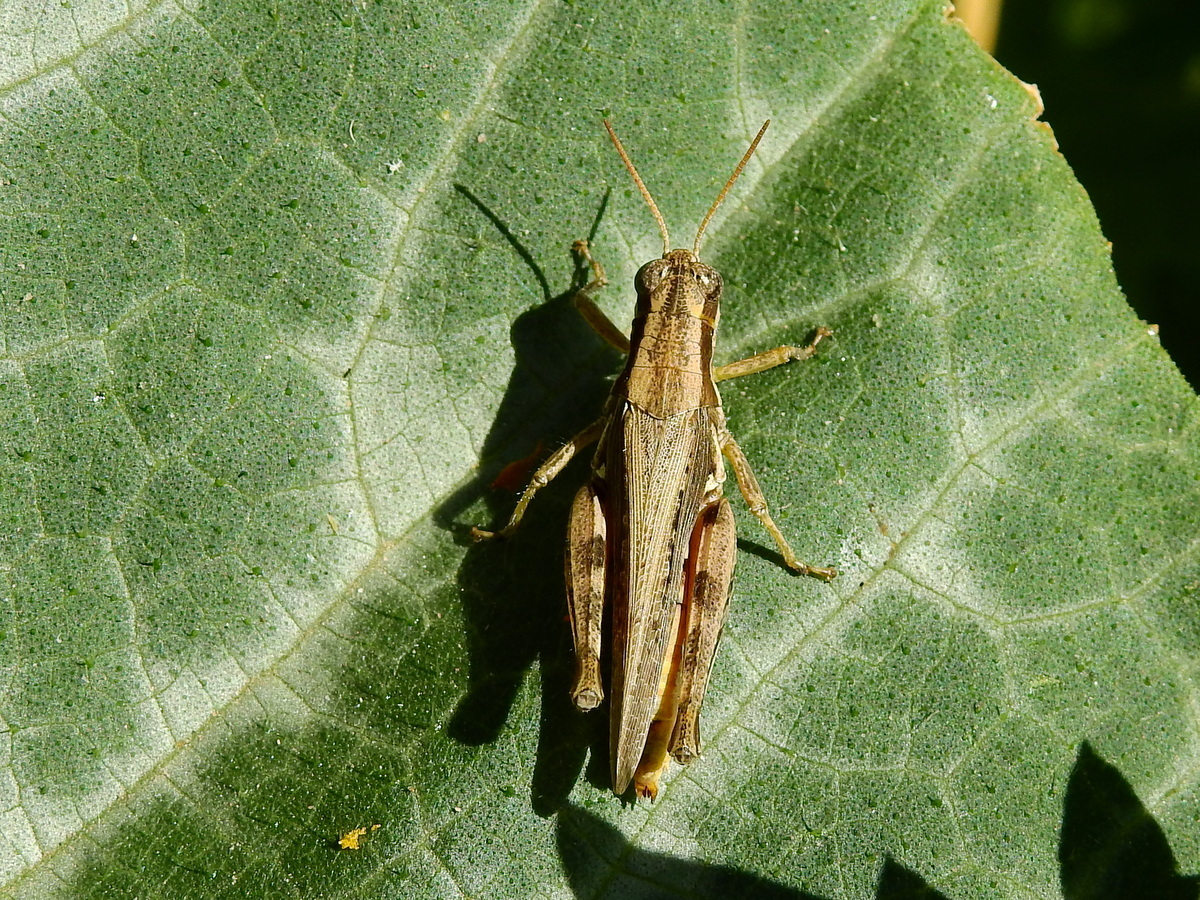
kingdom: Animalia
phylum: Arthropoda
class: Insecta
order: Orthoptera
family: Acrididae
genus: Dichroplus
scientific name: Dichroplus exilis
